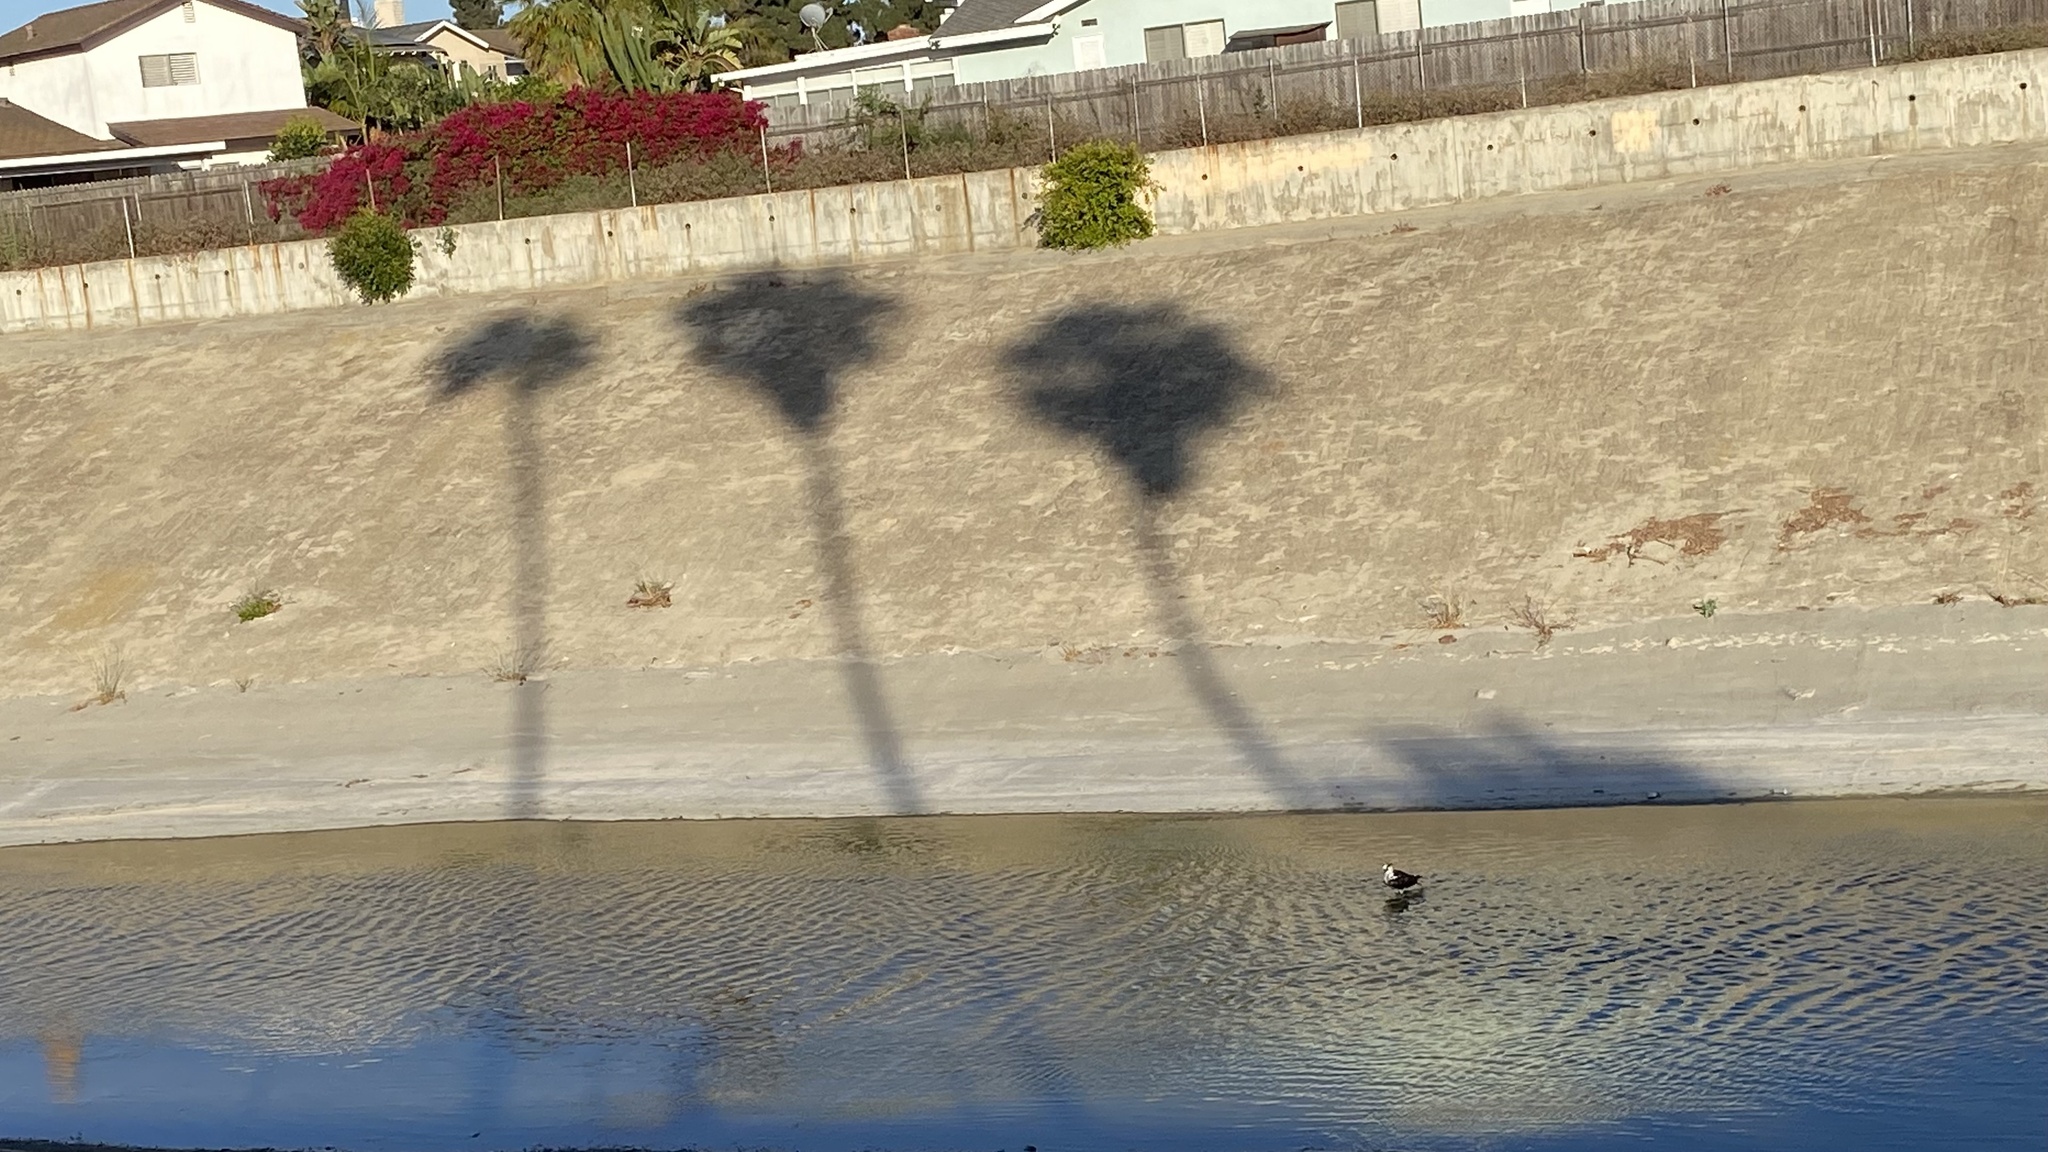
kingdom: Animalia
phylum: Chordata
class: Aves
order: Accipitriformes
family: Pandionidae
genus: Pandion
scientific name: Pandion haliaetus
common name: Osprey
